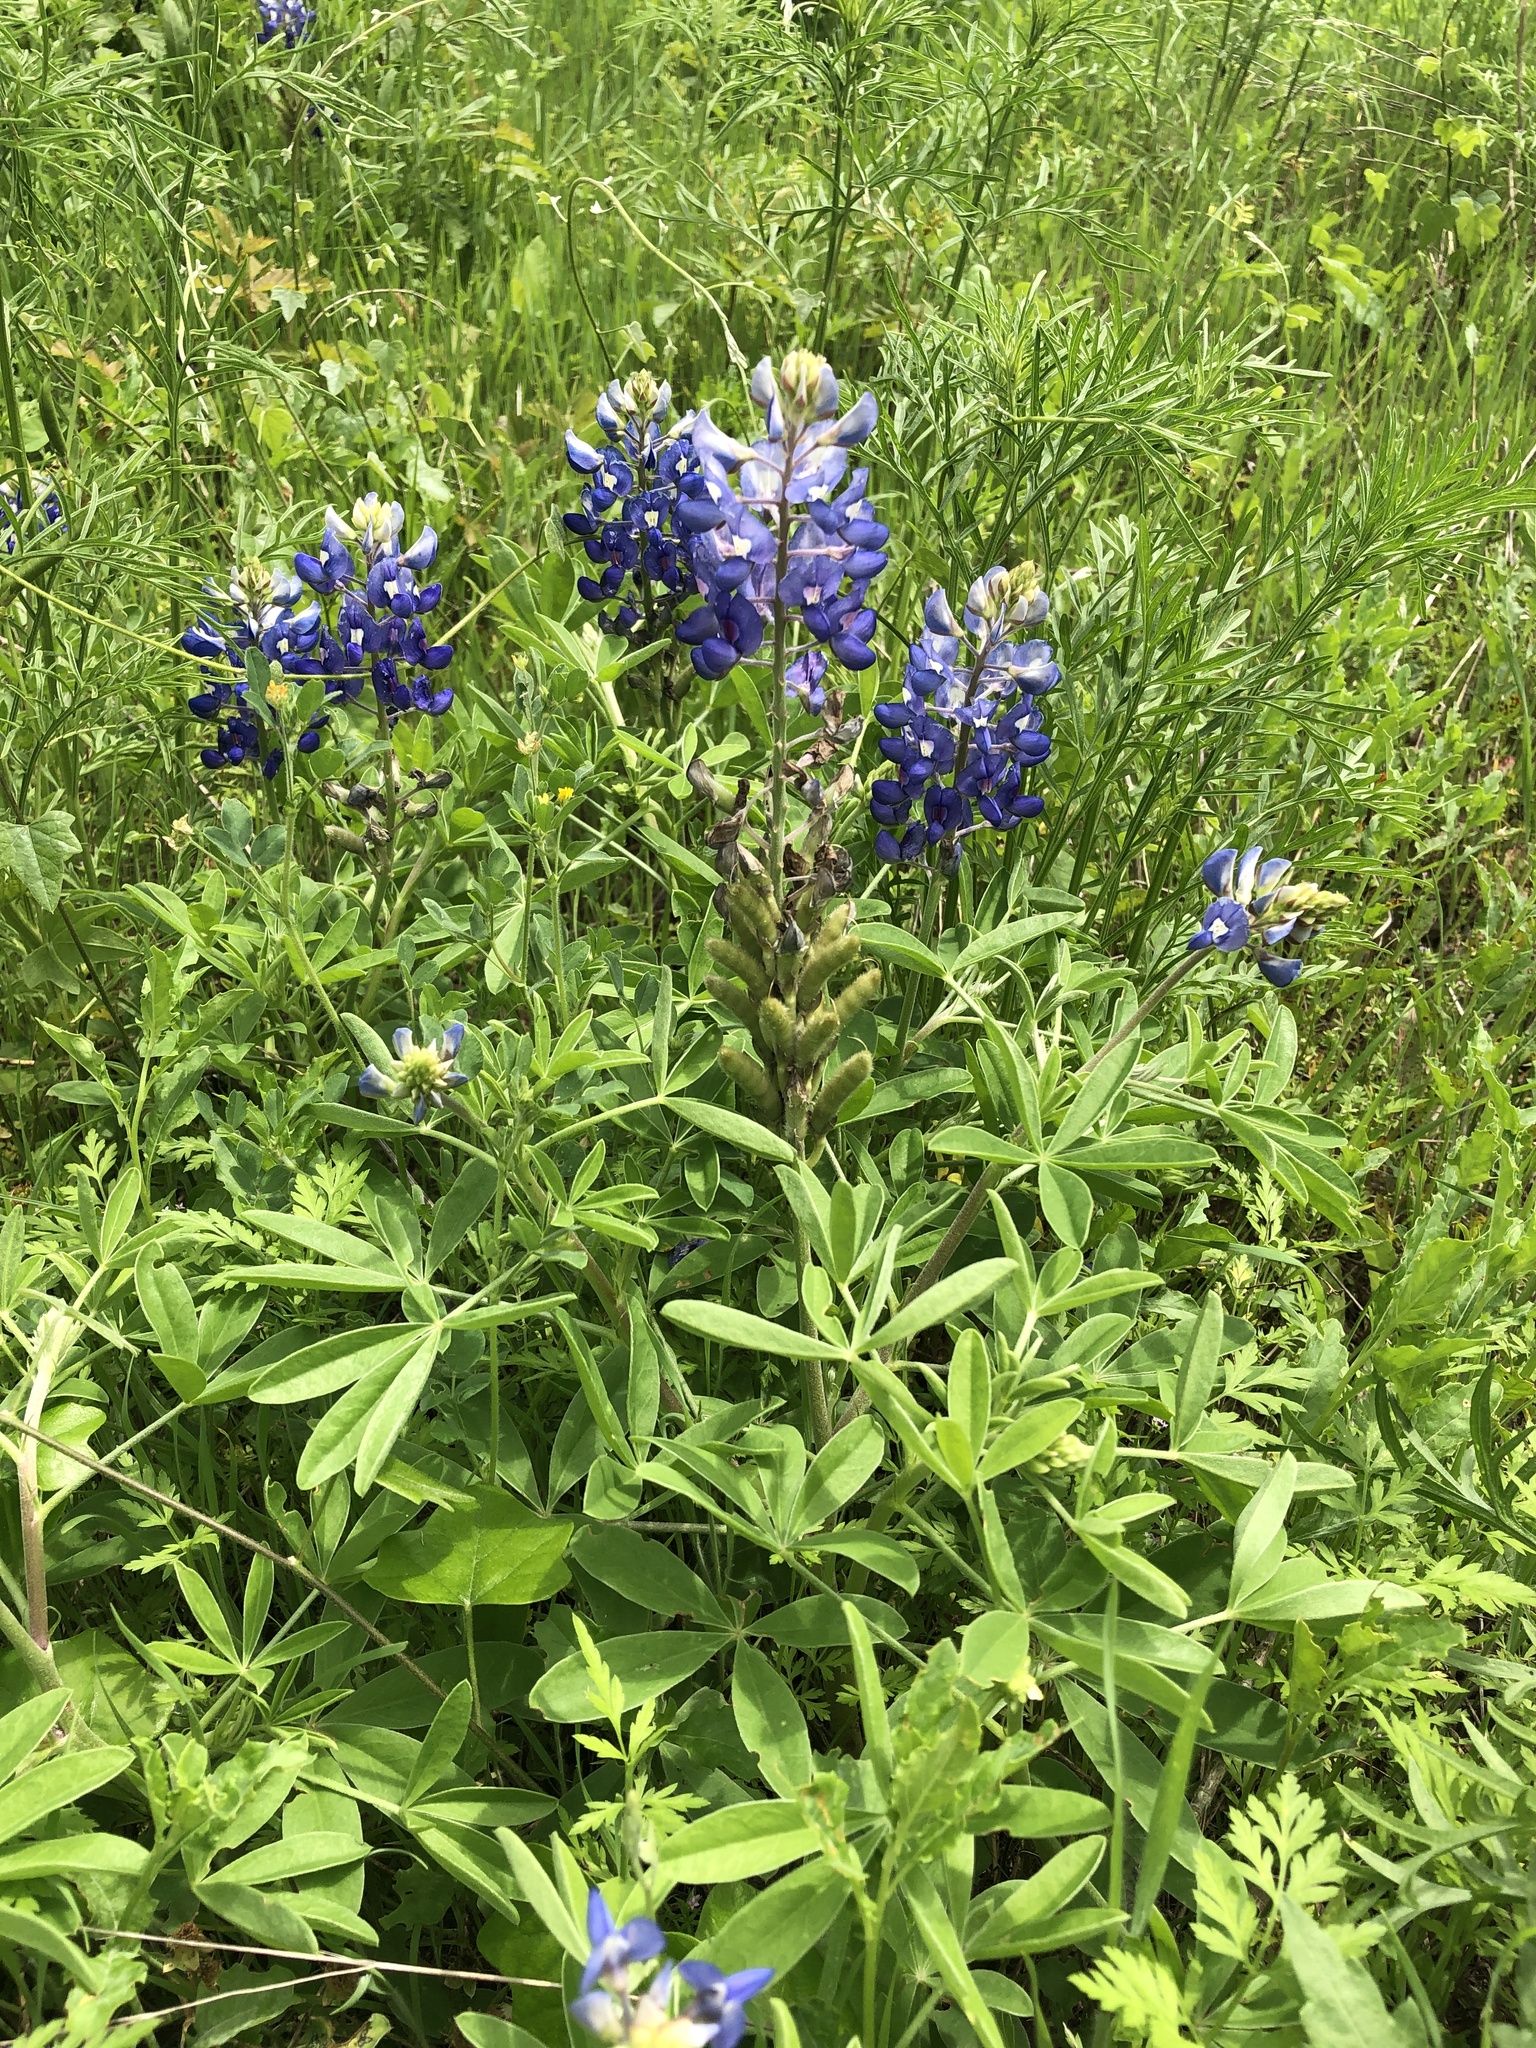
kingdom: Plantae
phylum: Tracheophyta
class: Magnoliopsida
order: Fabales
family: Fabaceae
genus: Lupinus
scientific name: Lupinus texensis
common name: Texas bluebonnet
